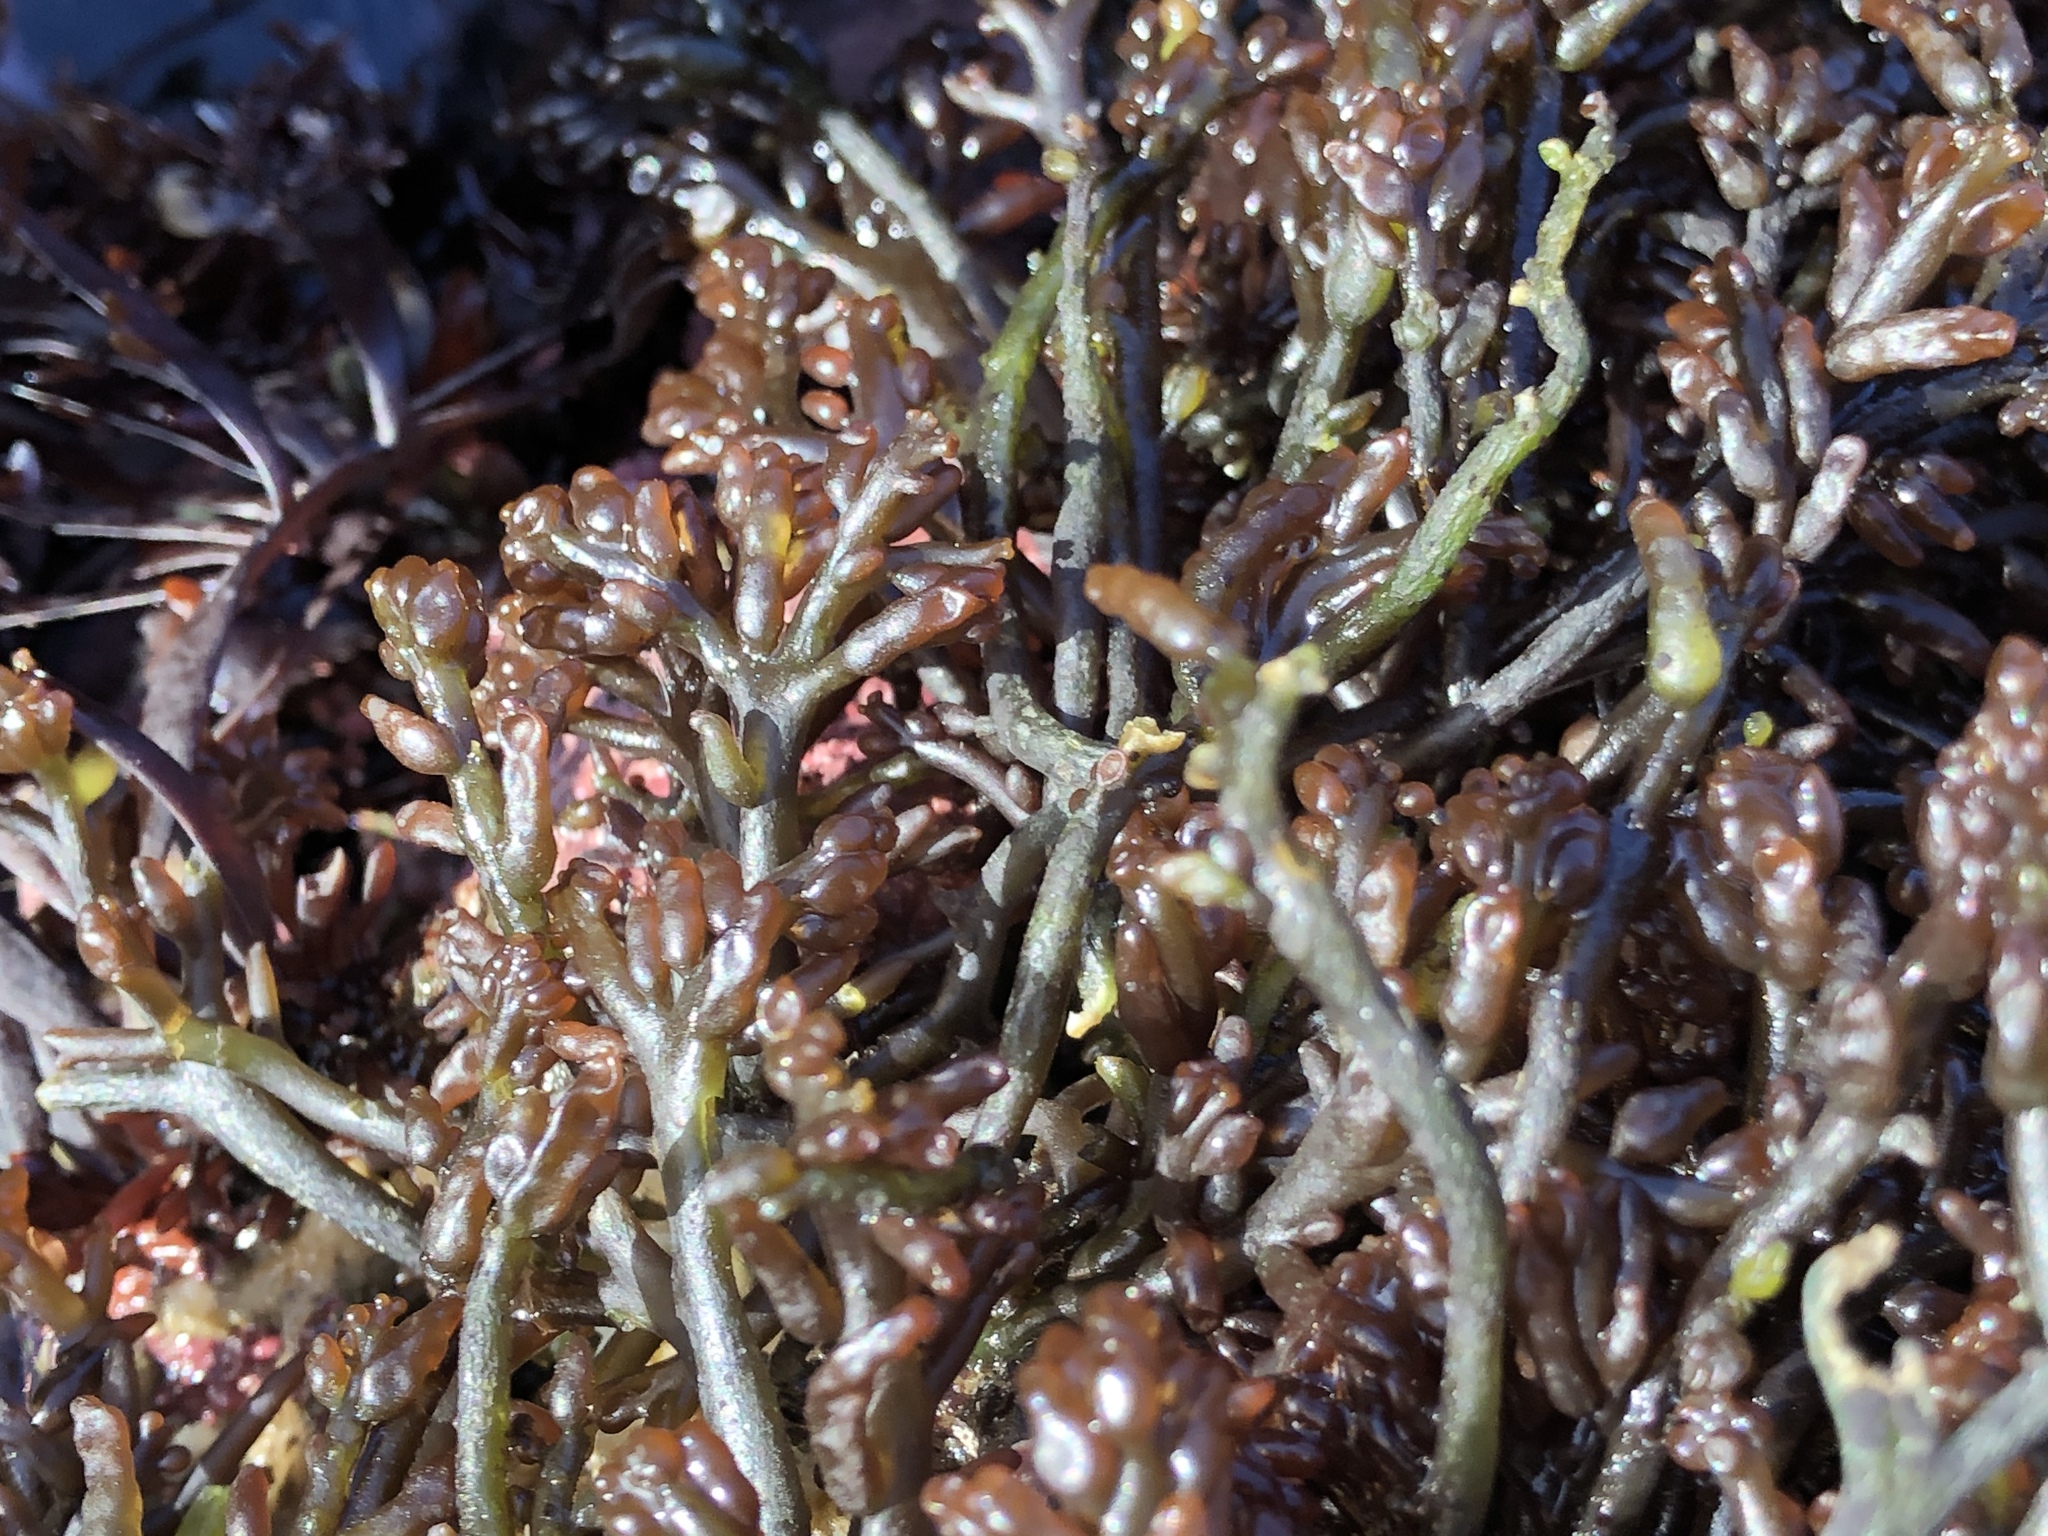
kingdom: Plantae
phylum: Rhodophyta
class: Florideophyceae
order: Rhodymeniales
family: Champiaceae
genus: Neogastroclonium
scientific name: Neogastroclonium subarticulatum
